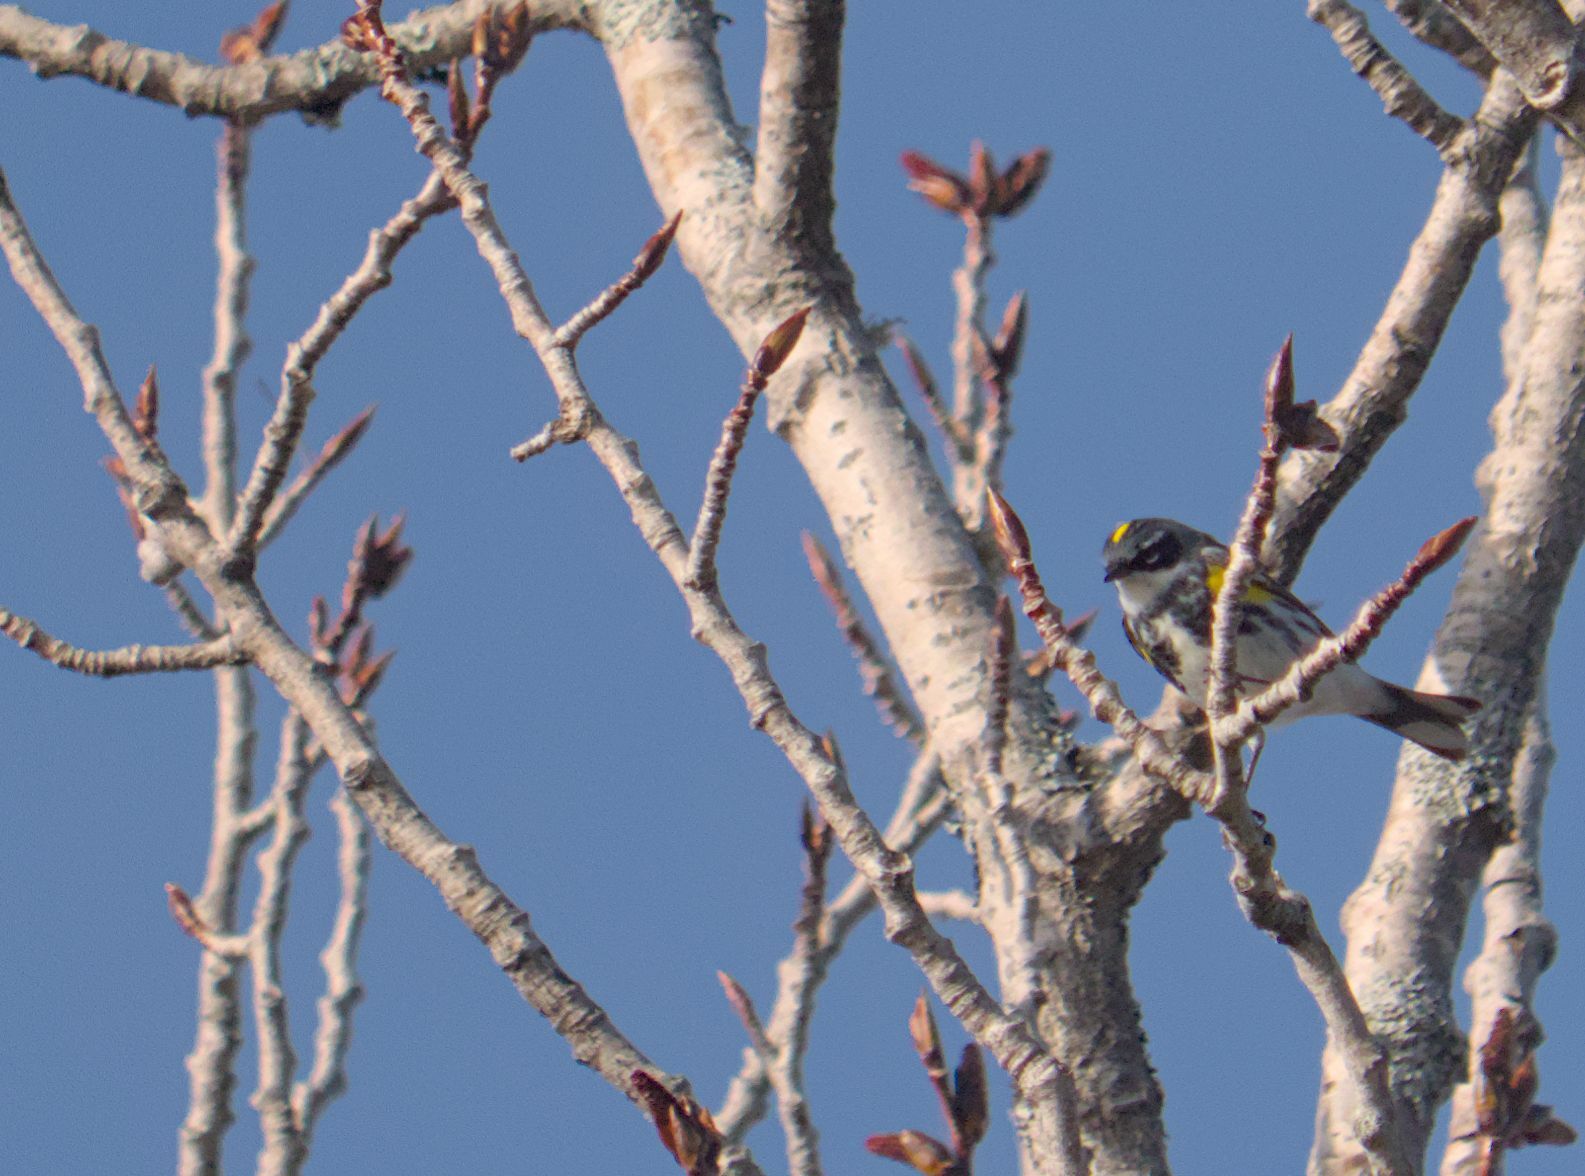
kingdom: Animalia
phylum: Chordata
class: Aves
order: Passeriformes
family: Parulidae
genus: Setophaga
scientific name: Setophaga coronata
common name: Myrtle warbler
